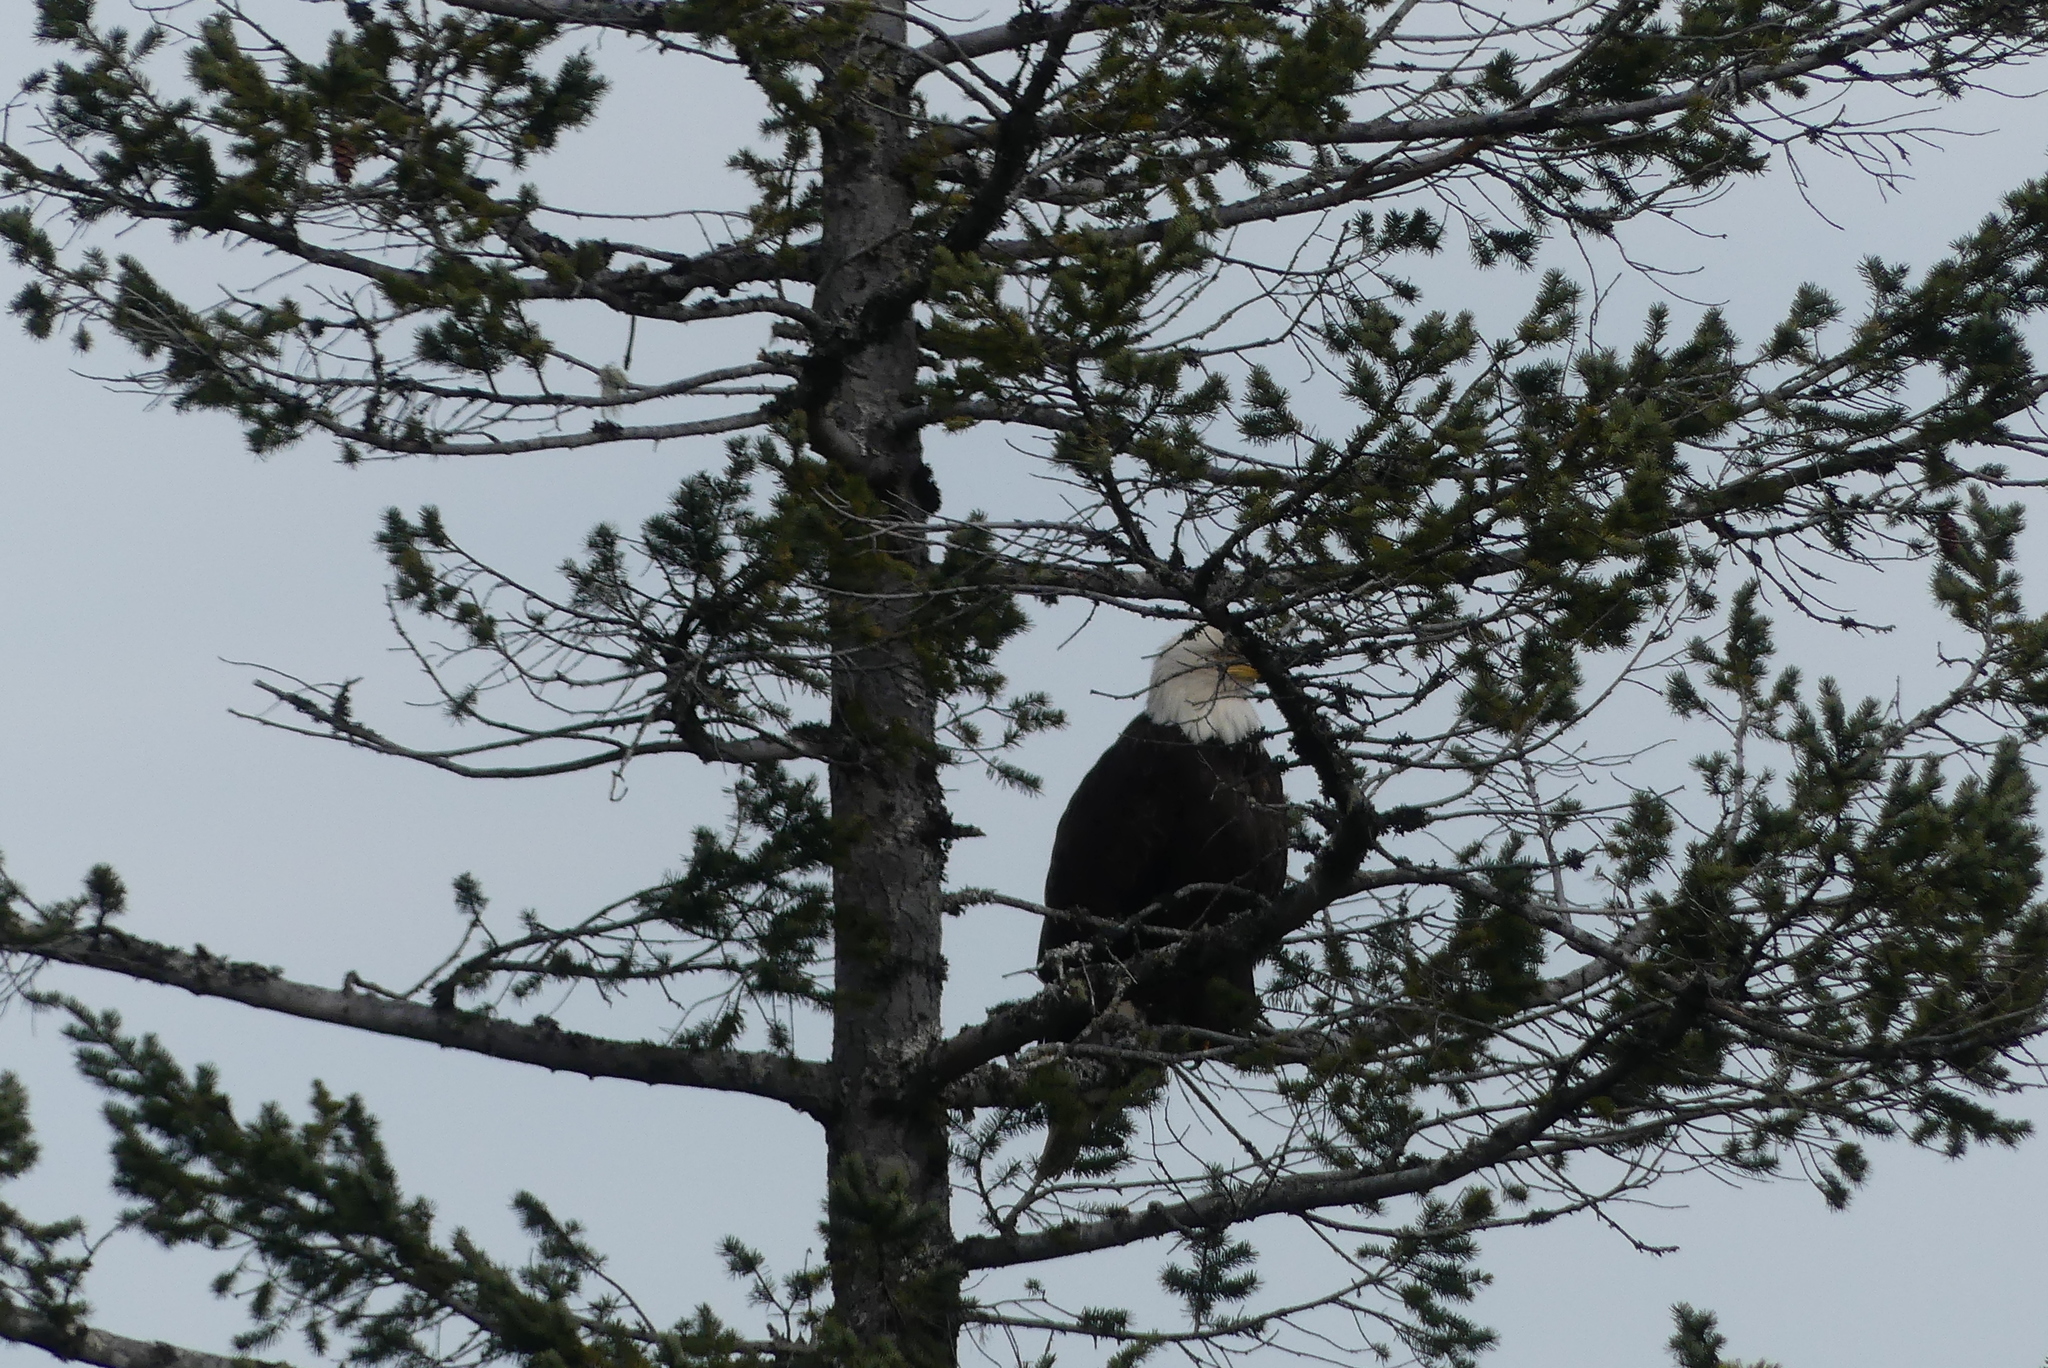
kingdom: Animalia
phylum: Chordata
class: Aves
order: Accipitriformes
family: Accipitridae
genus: Haliaeetus
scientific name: Haliaeetus leucocephalus
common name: Bald eagle
